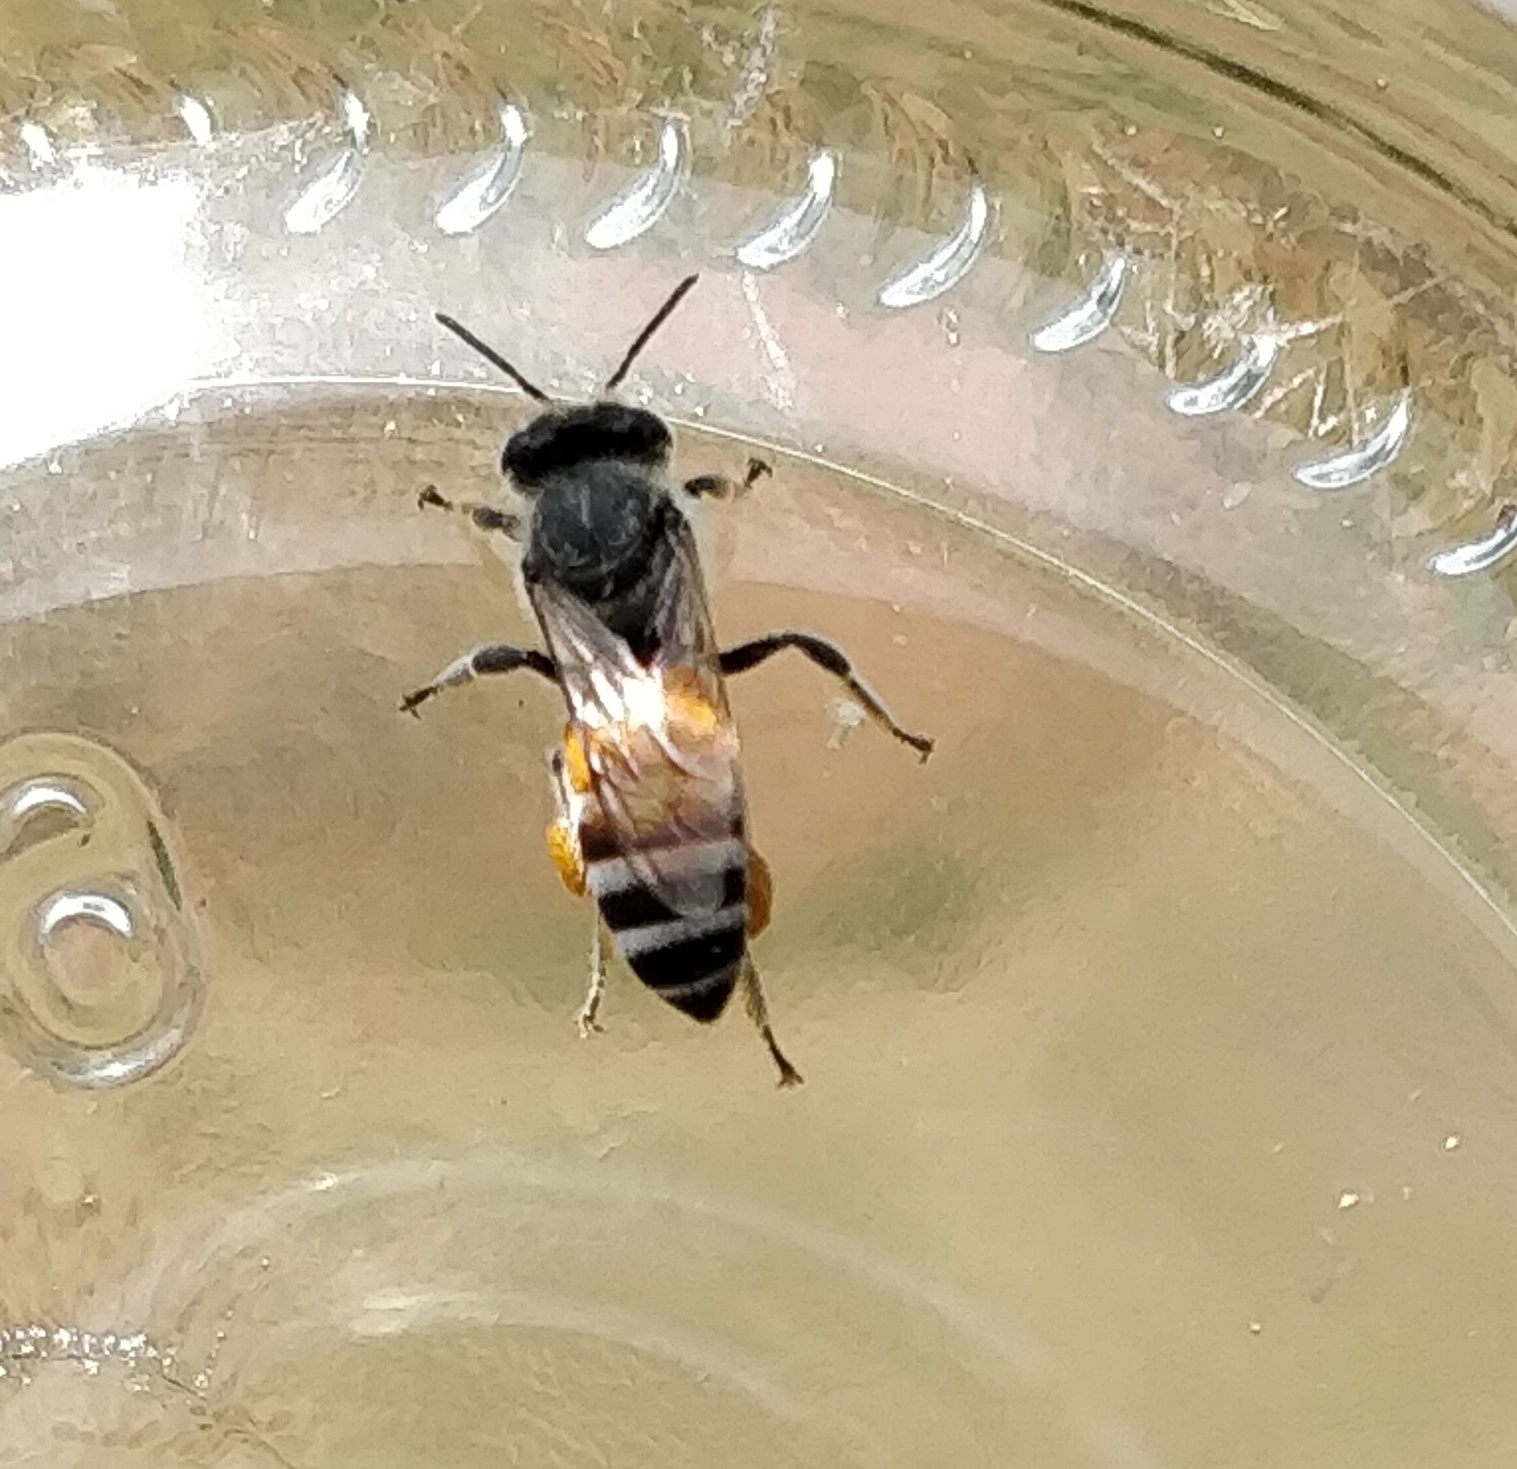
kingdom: Animalia
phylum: Arthropoda
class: Insecta
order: Hymenoptera
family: Apidae
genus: Apis
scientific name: Apis florea
